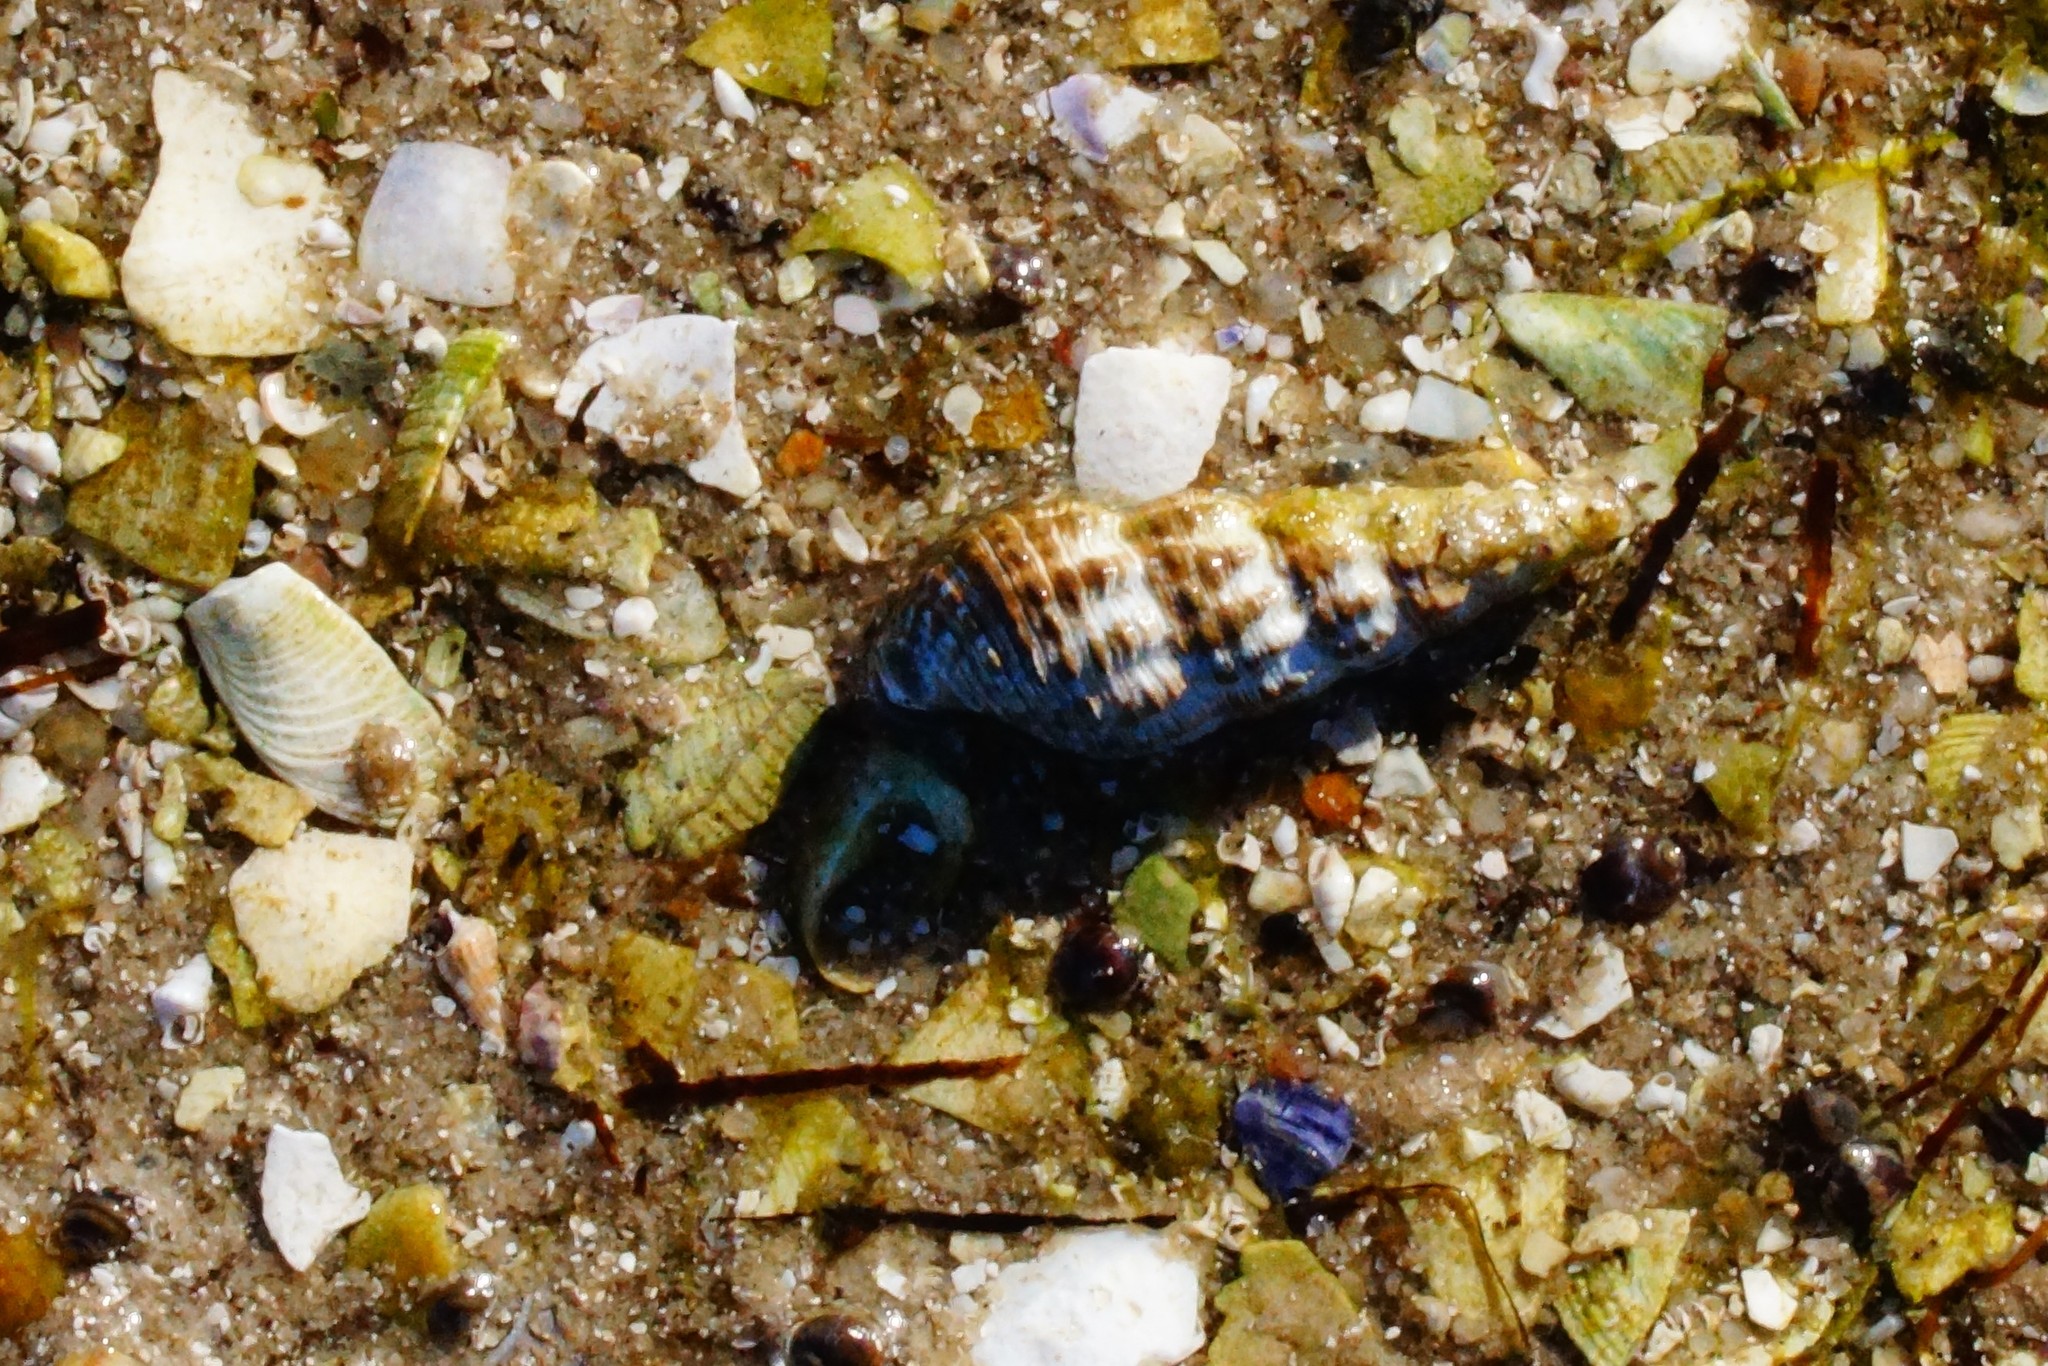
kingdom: Animalia
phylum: Mollusca
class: Gastropoda
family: Batillariidae
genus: Batillaria
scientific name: Batillaria australis
